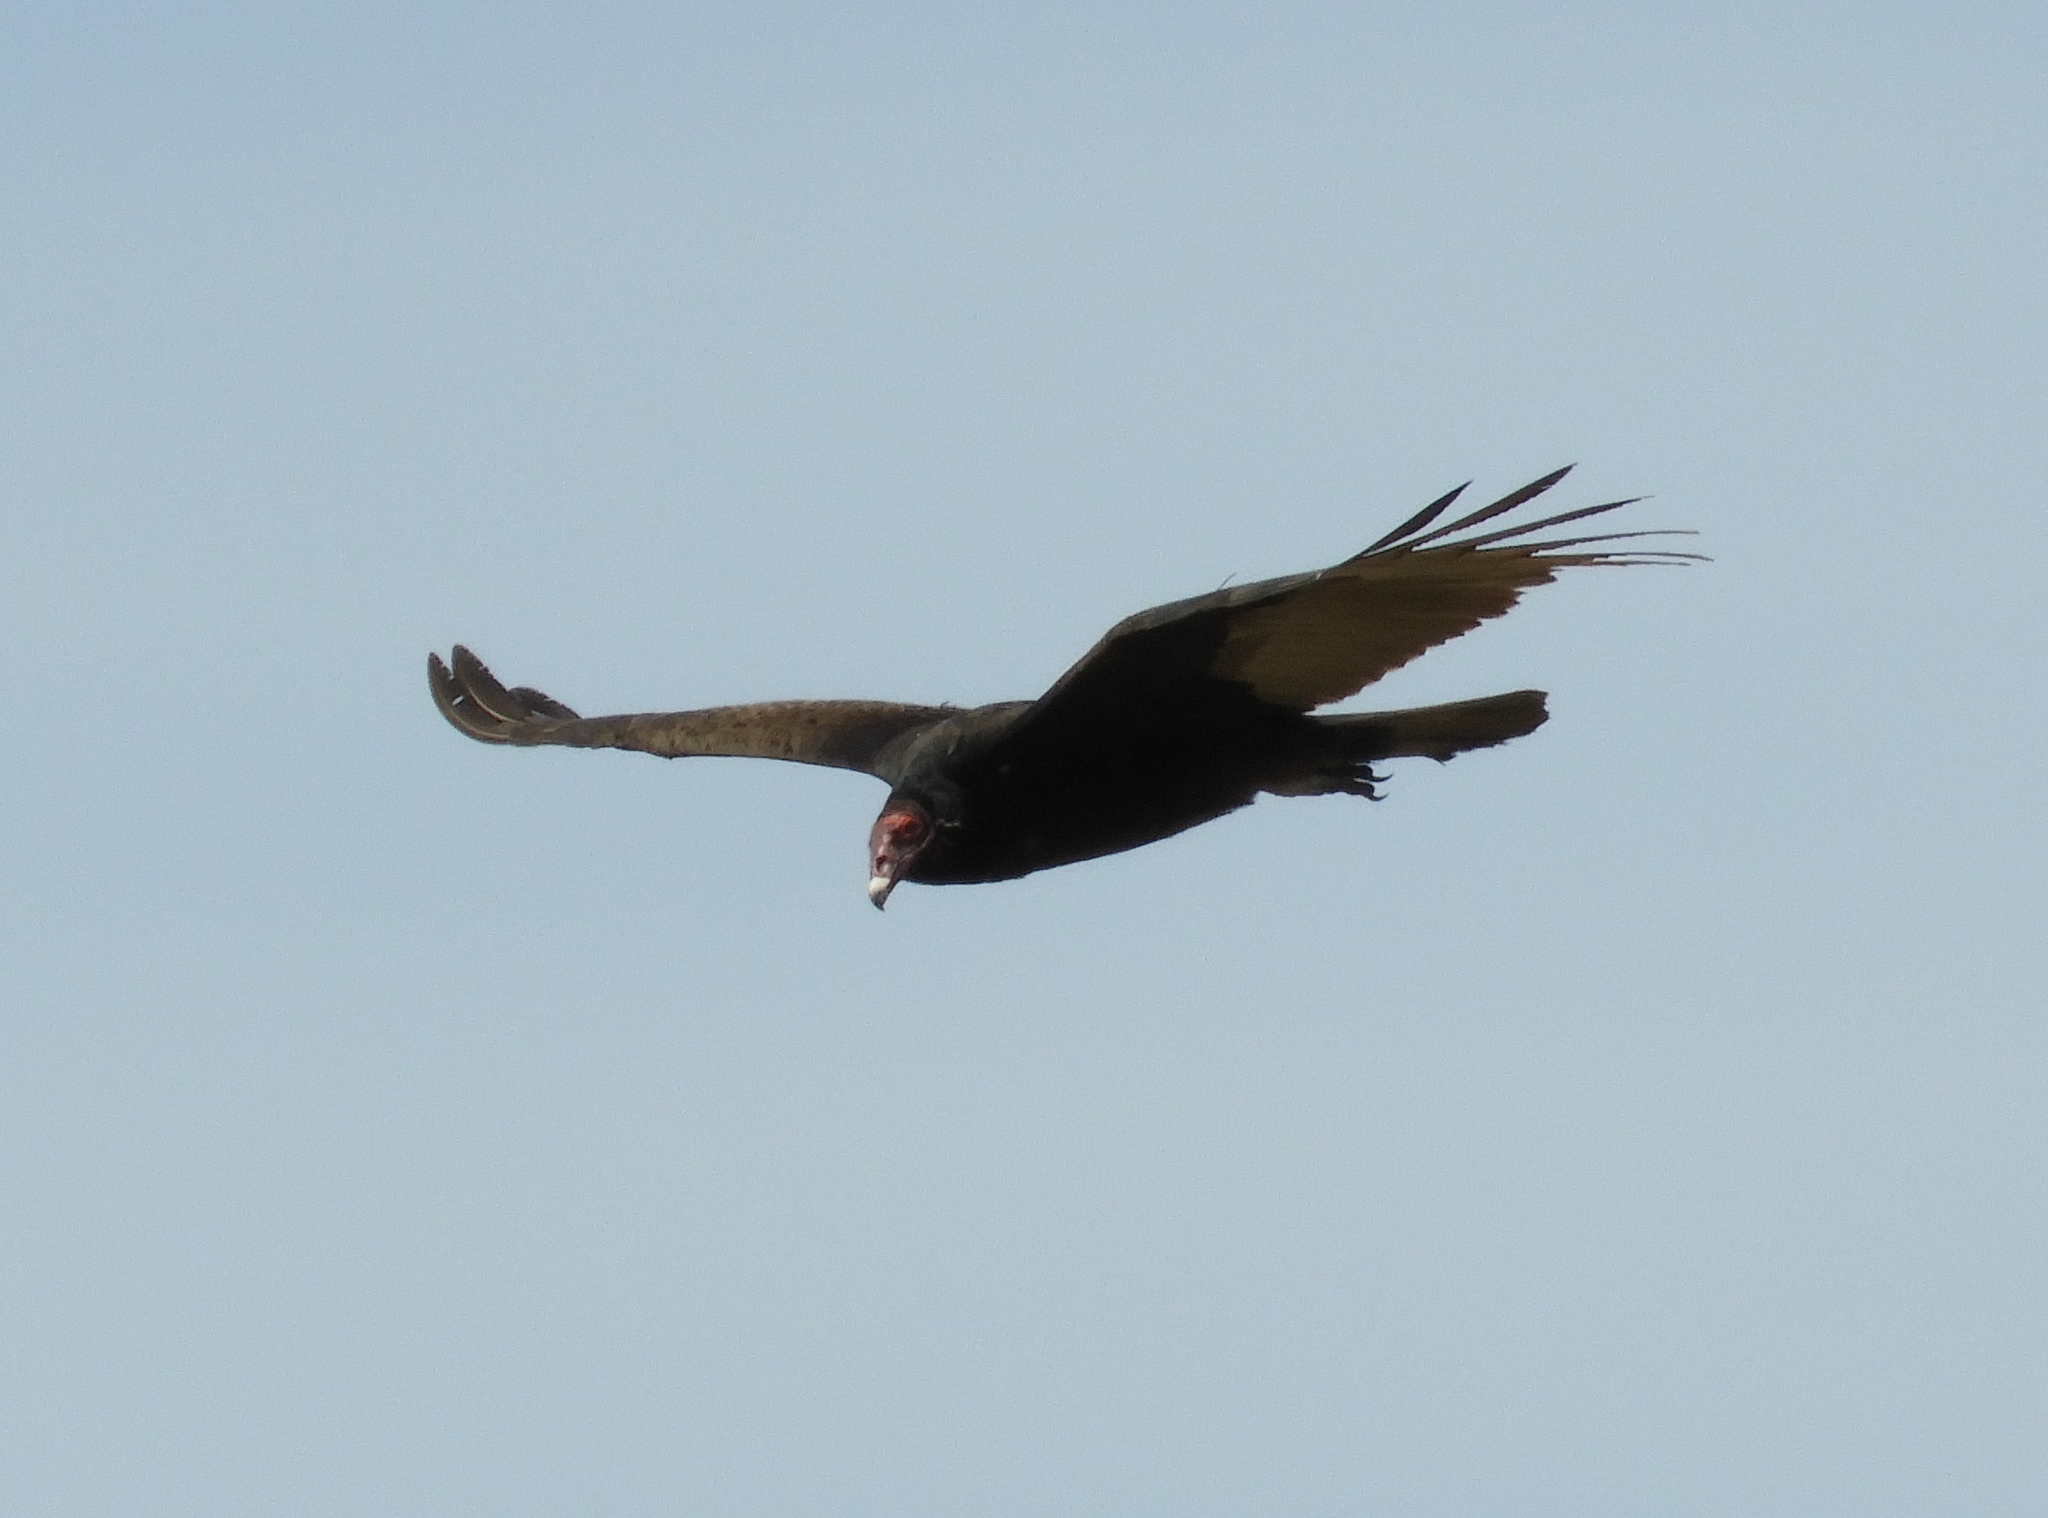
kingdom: Animalia
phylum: Chordata
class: Aves
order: Accipitriformes
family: Cathartidae
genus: Cathartes
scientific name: Cathartes aura
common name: Turkey vulture
